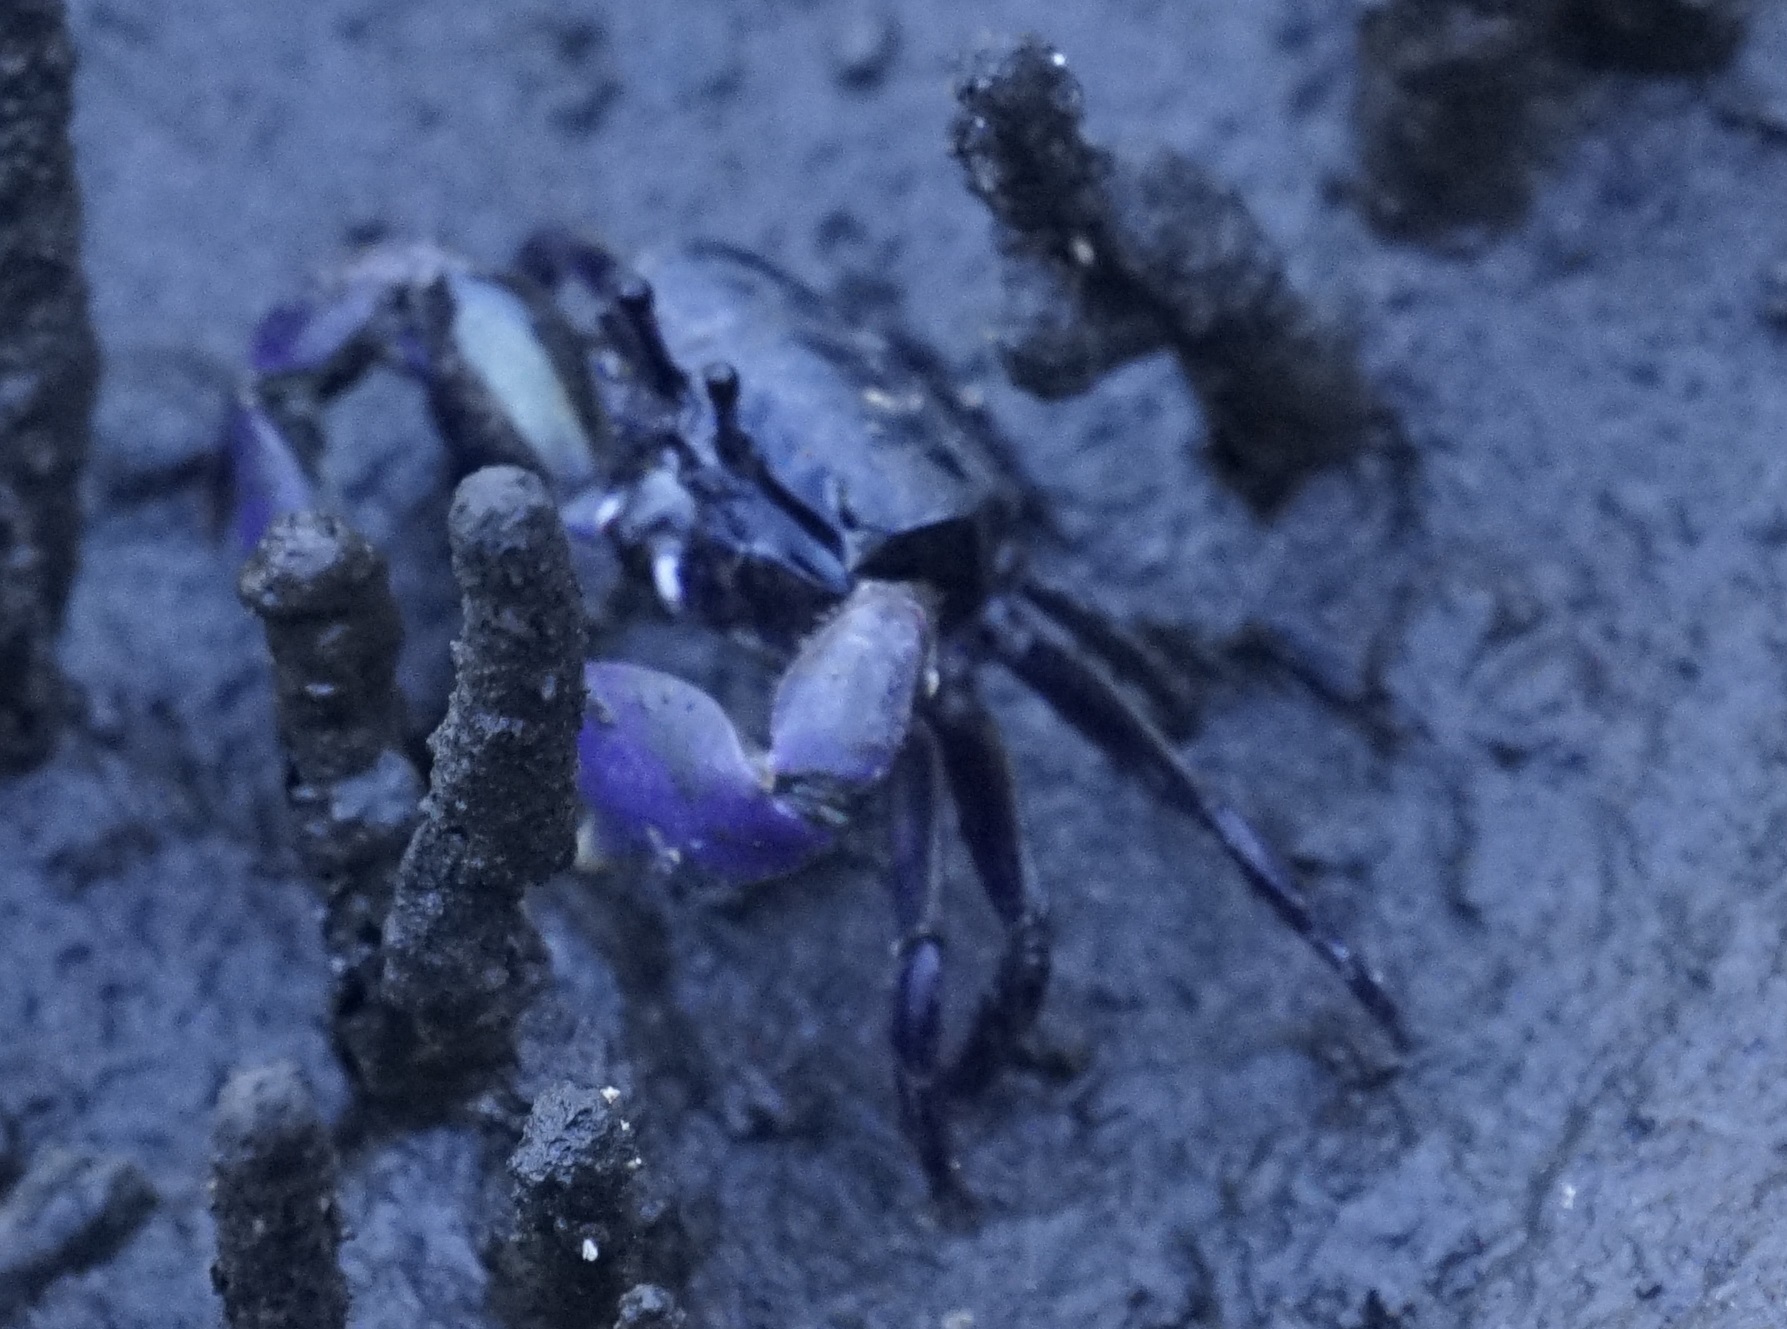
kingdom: Animalia
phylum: Arthropoda
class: Malacostraca
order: Decapoda
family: Heloeciidae
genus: Heloecius
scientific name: Heloecius cordiformis
